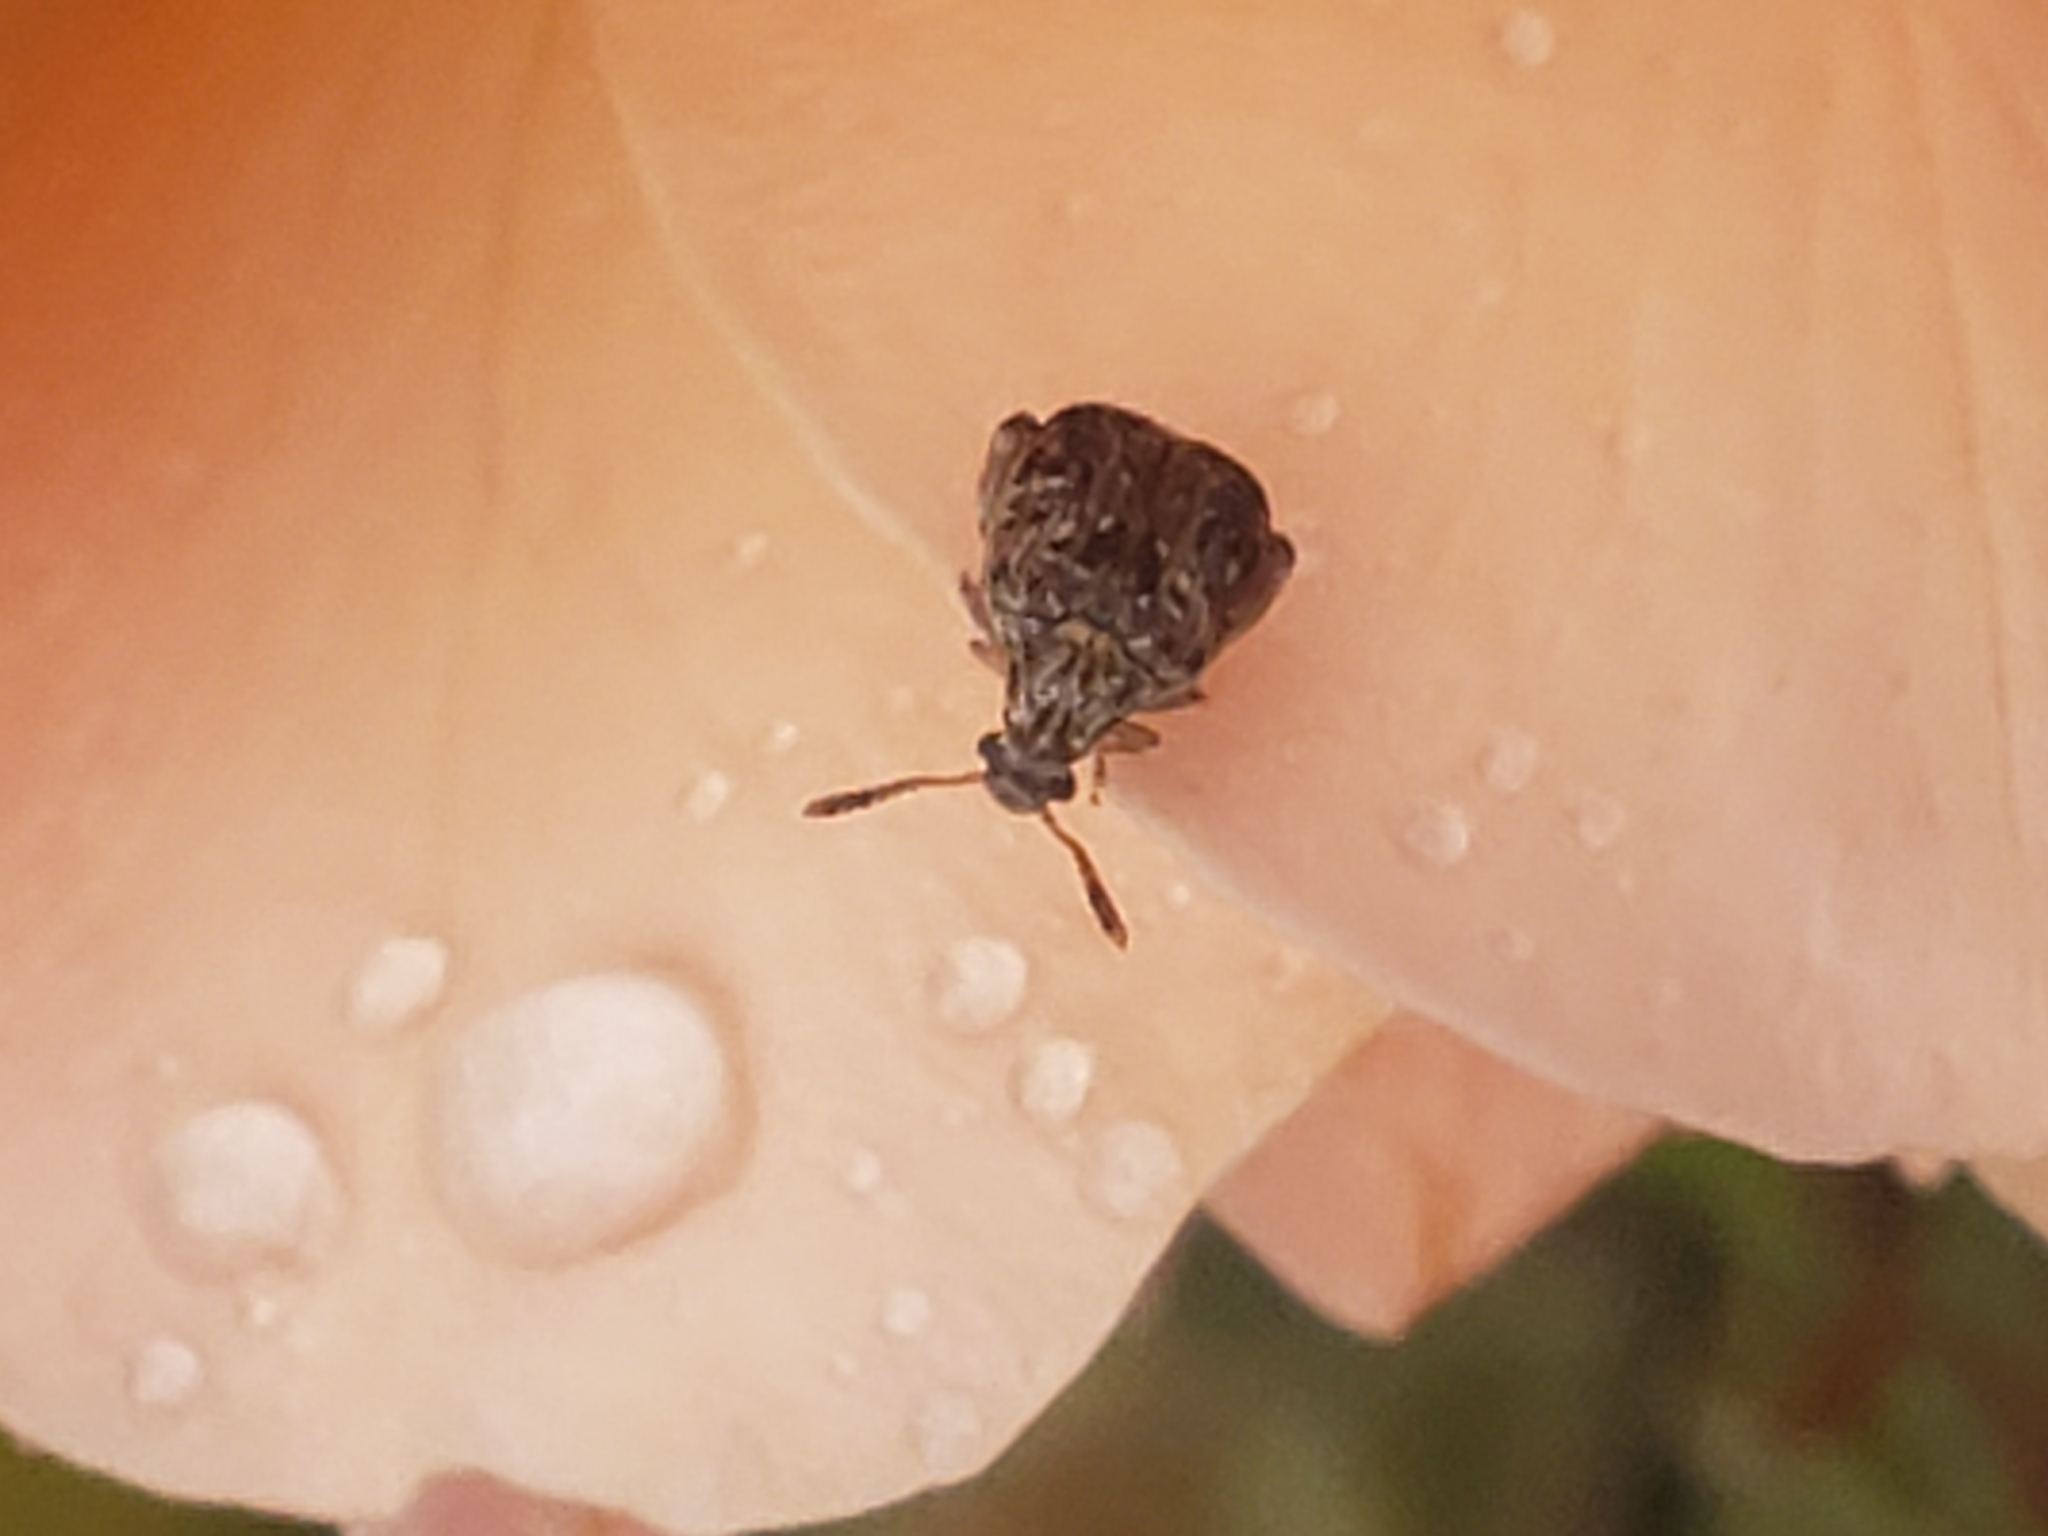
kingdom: Animalia
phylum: Arthropoda
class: Insecta
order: Coleoptera
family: Chrysomelidae
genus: Gibbobruchus
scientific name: Gibbobruchus mimus
